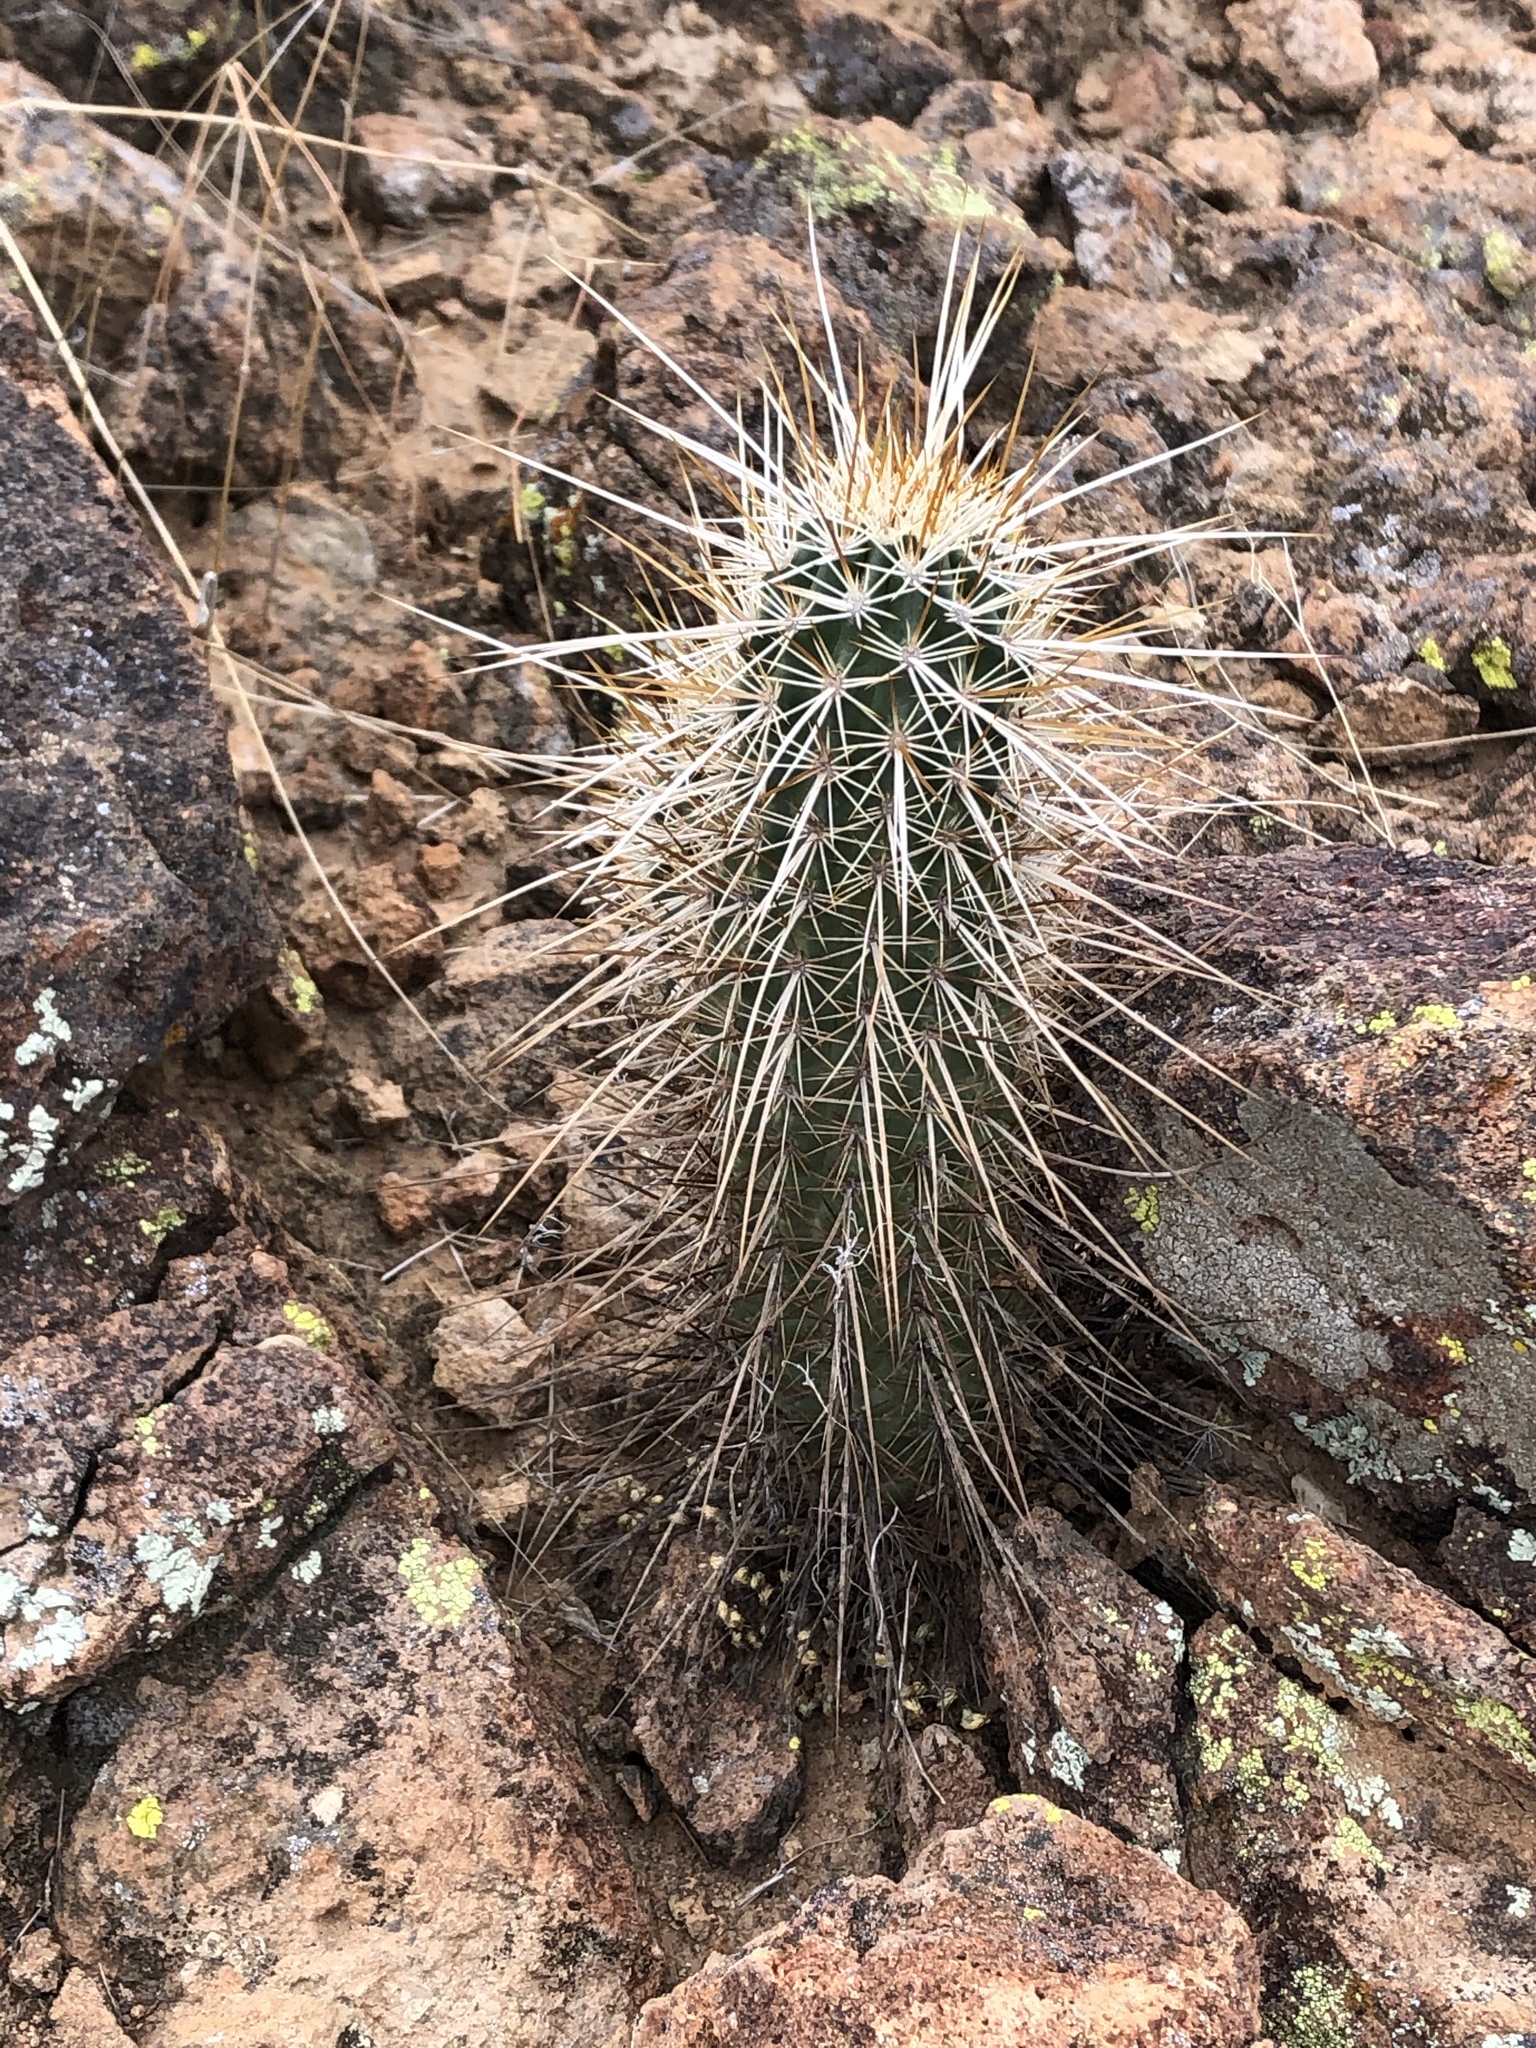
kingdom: Plantae
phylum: Tracheophyta
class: Magnoliopsida
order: Caryophyllales
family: Cactaceae
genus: Echinocereus
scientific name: Echinocereus engelmannii
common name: Engelmann's hedgehog cactus
